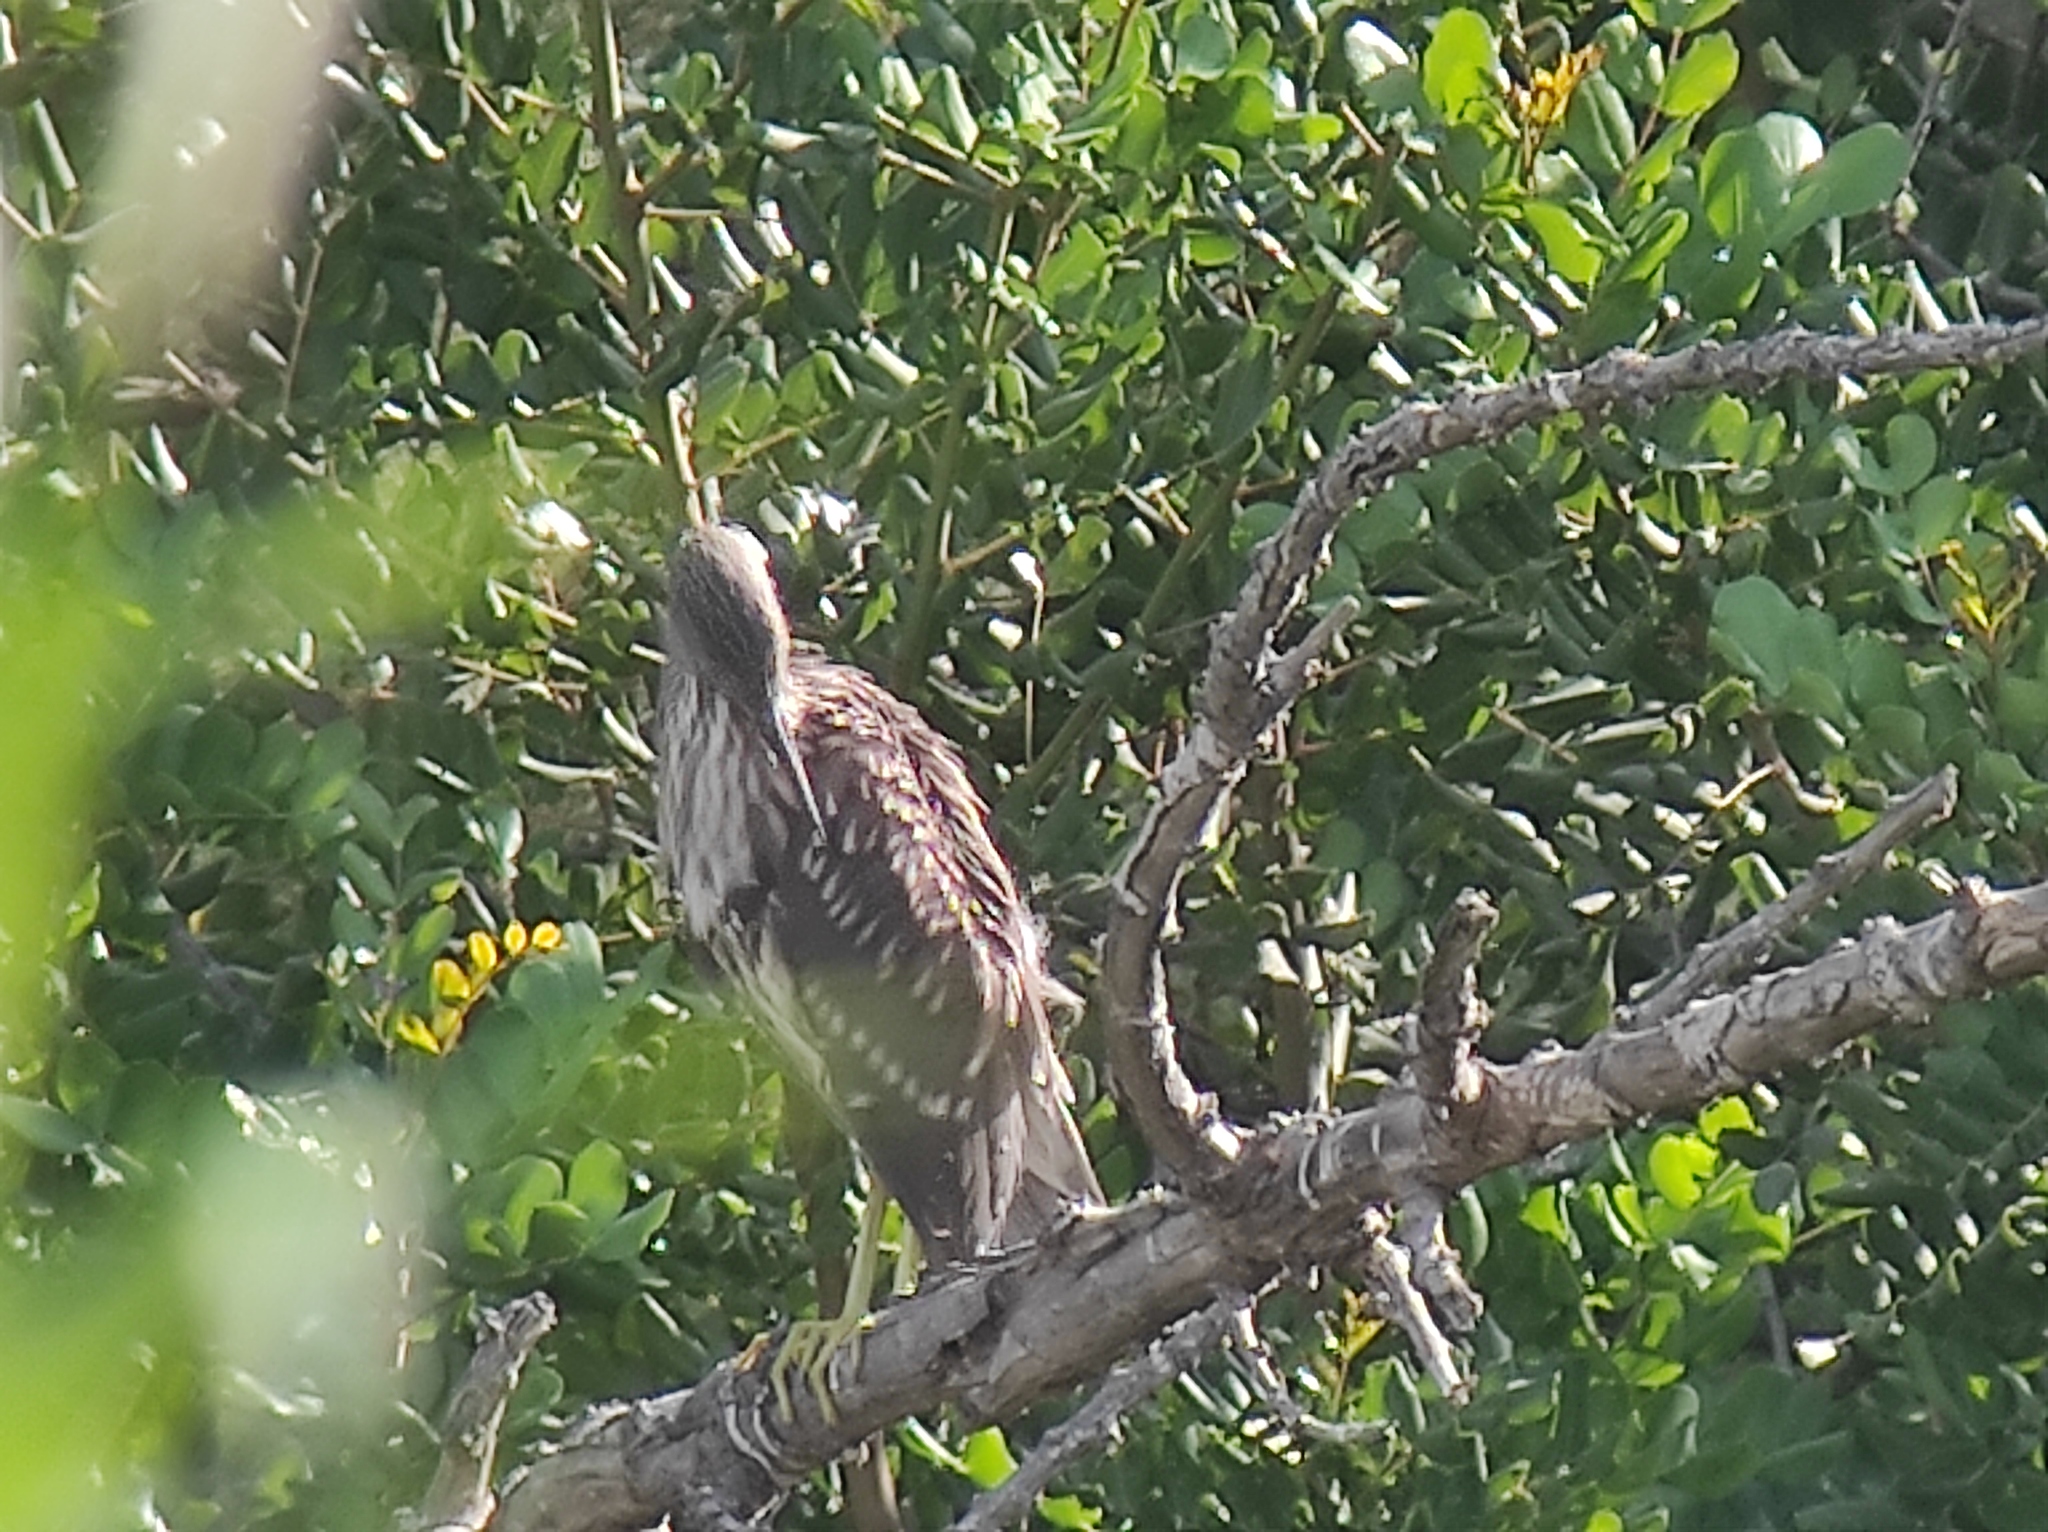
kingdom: Animalia
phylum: Chordata
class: Aves
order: Pelecaniformes
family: Ardeidae
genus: Nycticorax
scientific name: Nycticorax nycticorax
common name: Black-crowned night heron
